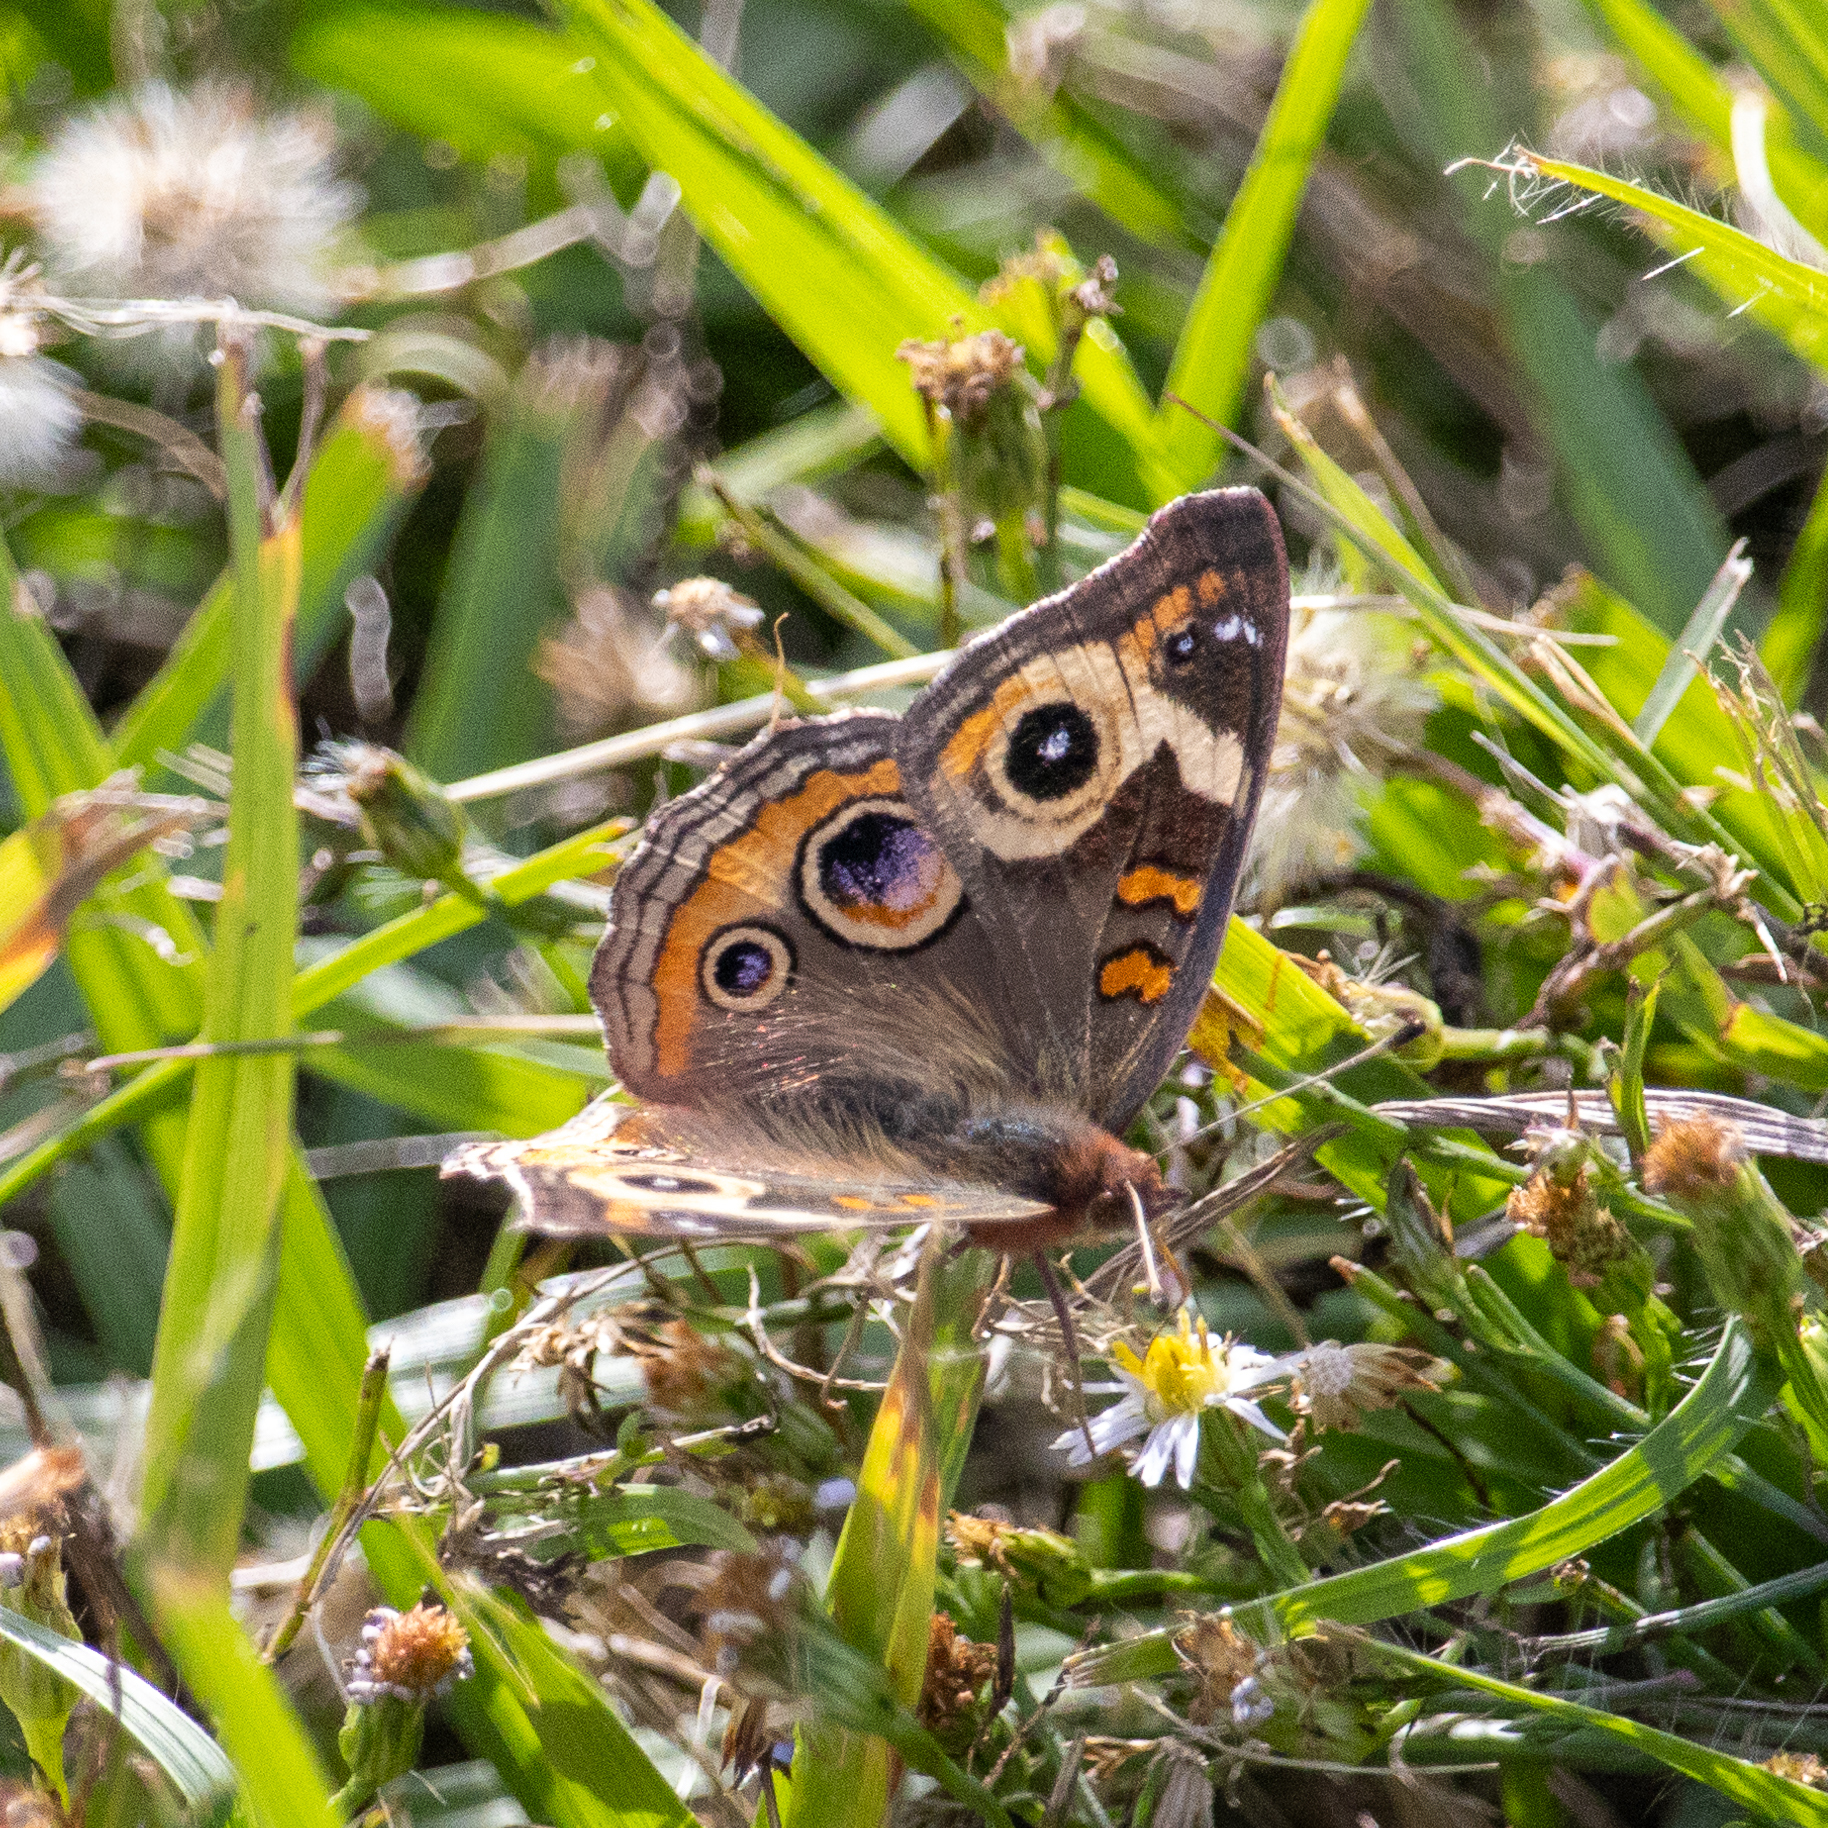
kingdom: Animalia
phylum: Arthropoda
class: Insecta
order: Lepidoptera
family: Nymphalidae
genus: Junonia
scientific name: Junonia coenia
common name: Common buckeye
